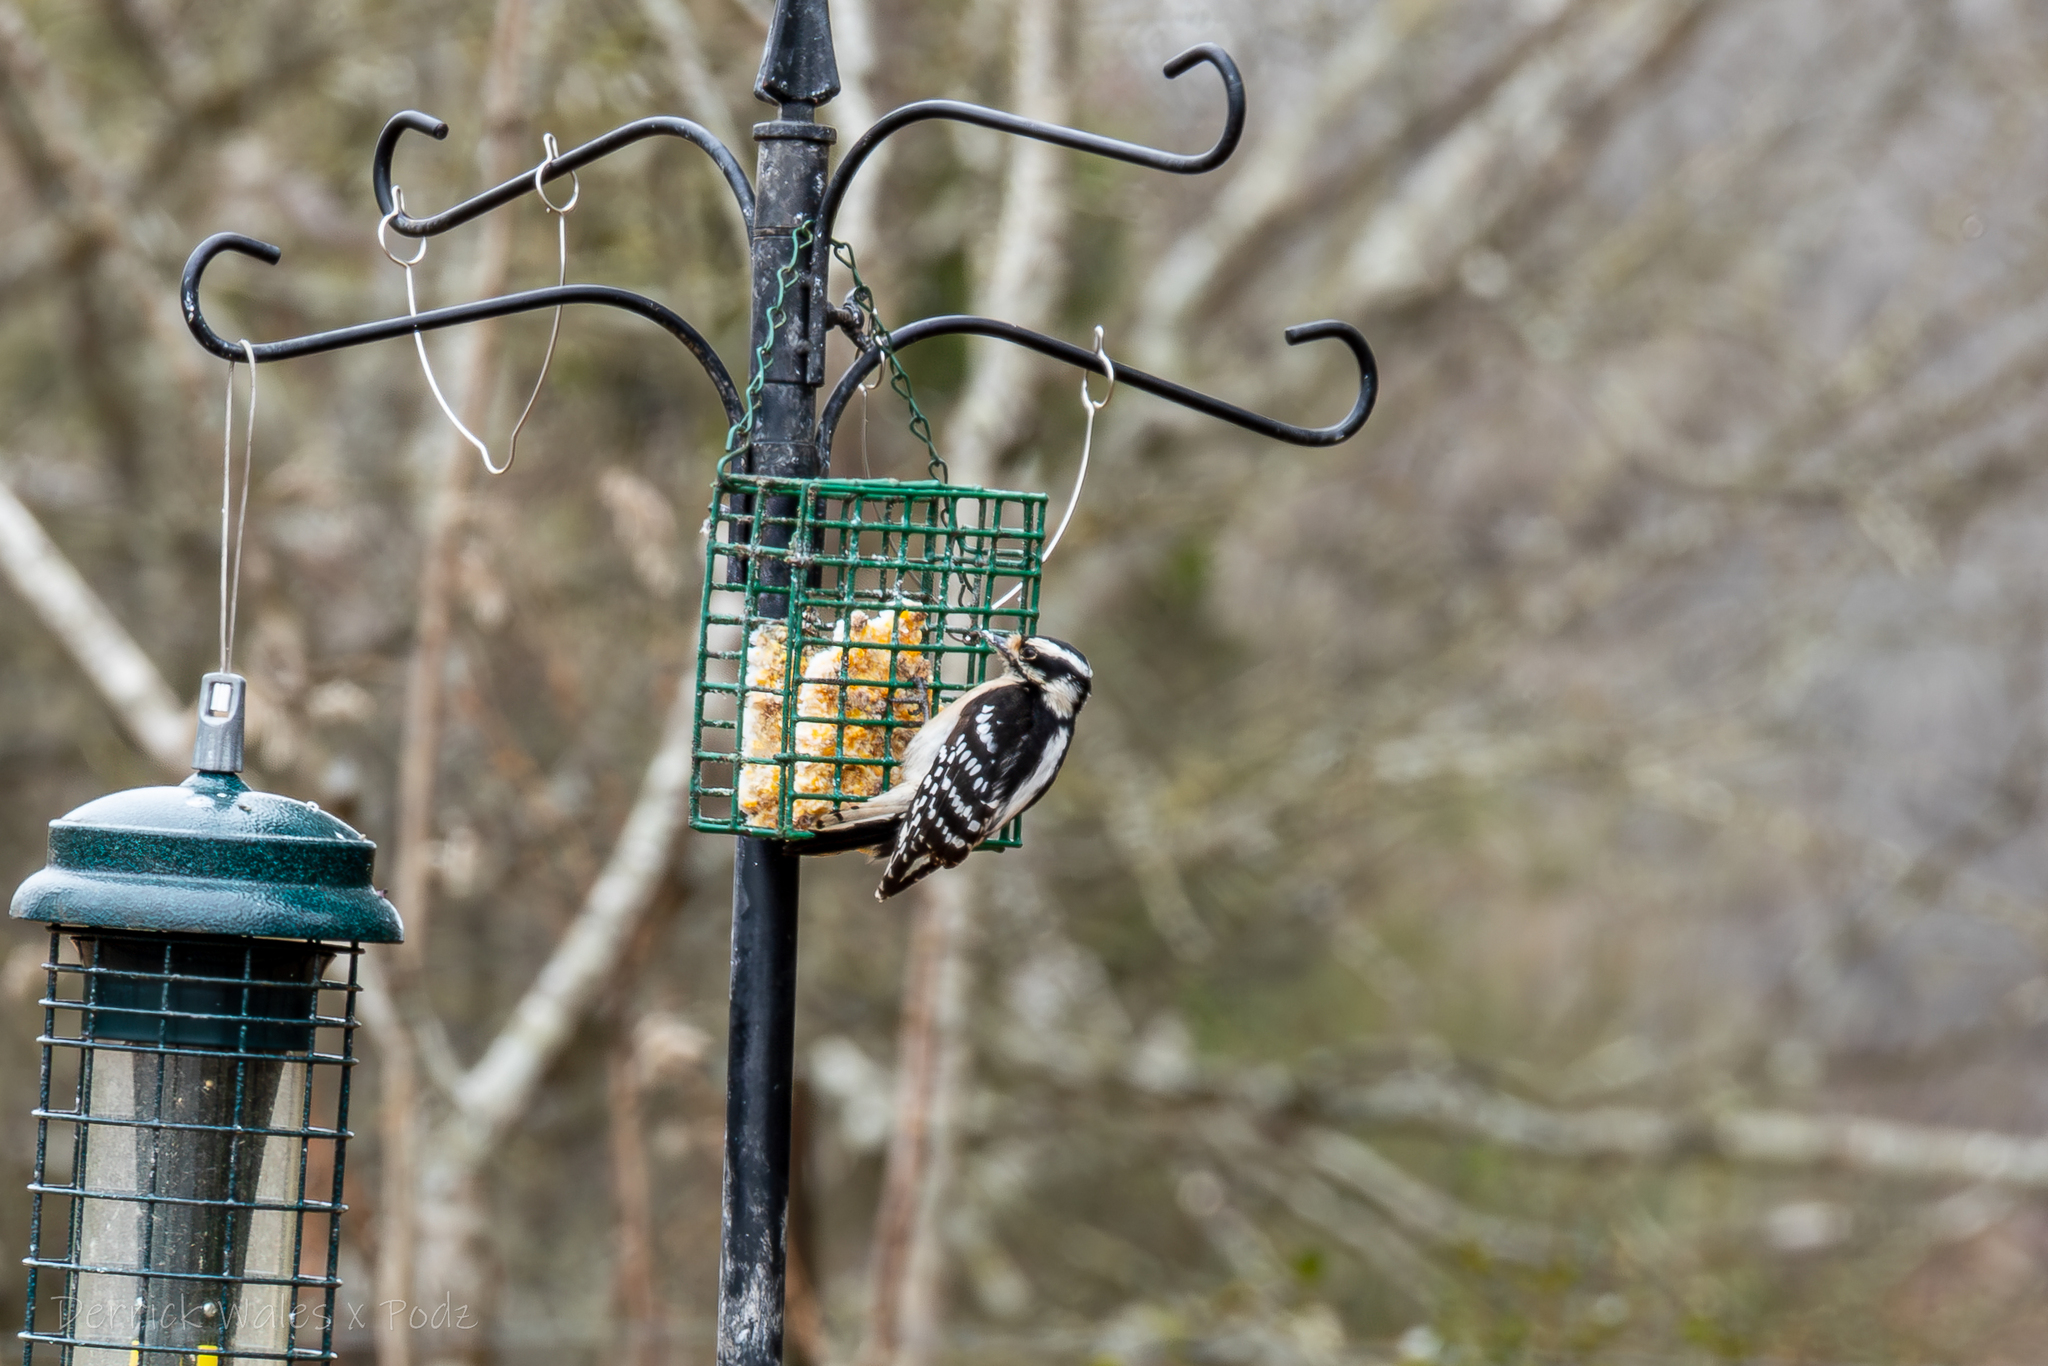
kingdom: Animalia
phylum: Chordata
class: Aves
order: Piciformes
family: Picidae
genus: Dryobates
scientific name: Dryobates pubescens
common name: Downy woodpecker
